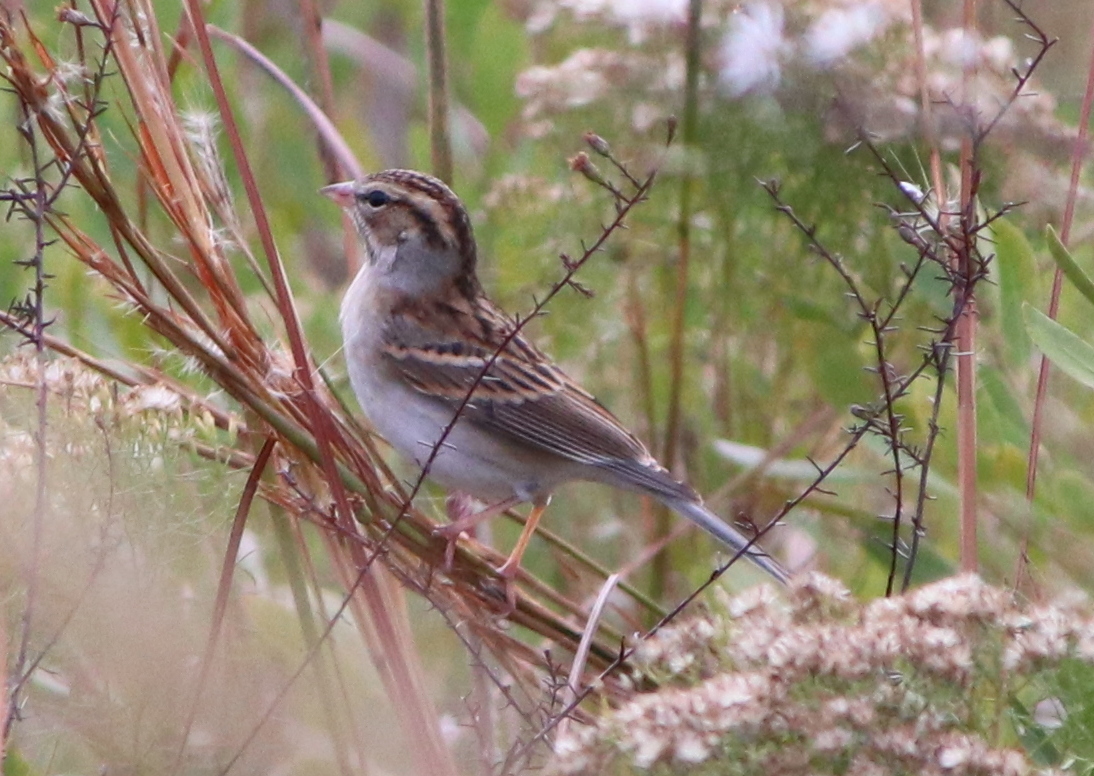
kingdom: Animalia
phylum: Chordata
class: Aves
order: Passeriformes
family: Passerellidae
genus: Spizella
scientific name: Spizella passerina
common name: Chipping sparrow
